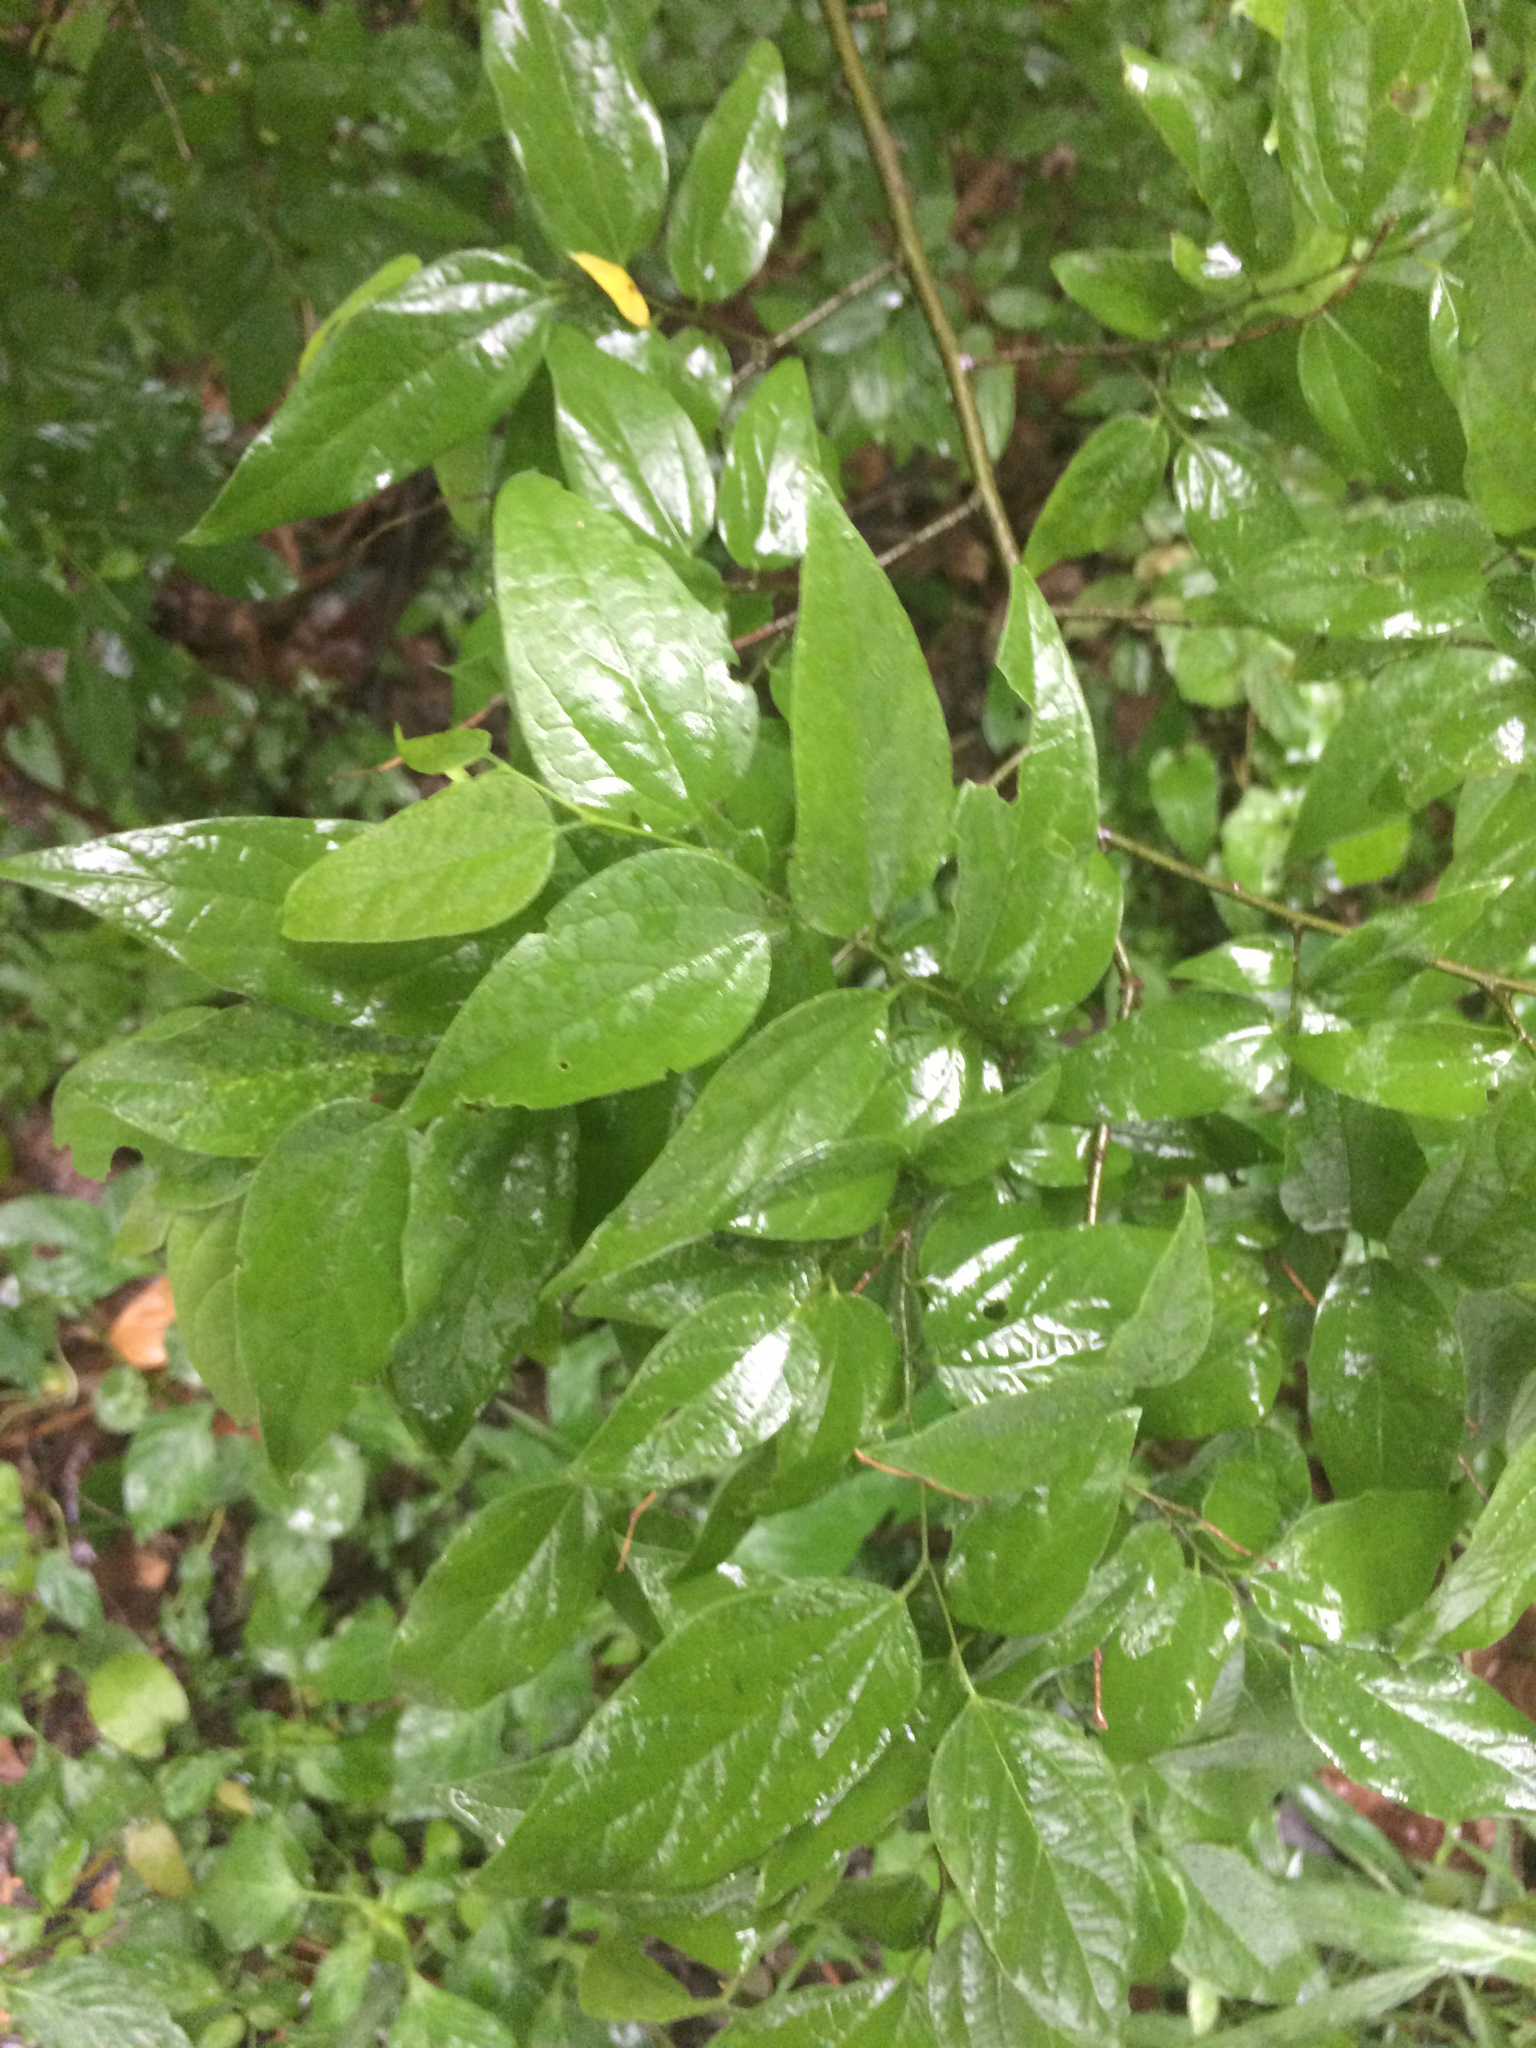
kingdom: Plantae
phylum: Tracheophyta
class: Magnoliopsida
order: Rosales
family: Cannabaceae
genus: Celtis
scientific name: Celtis laevigata
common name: Sugarberry
